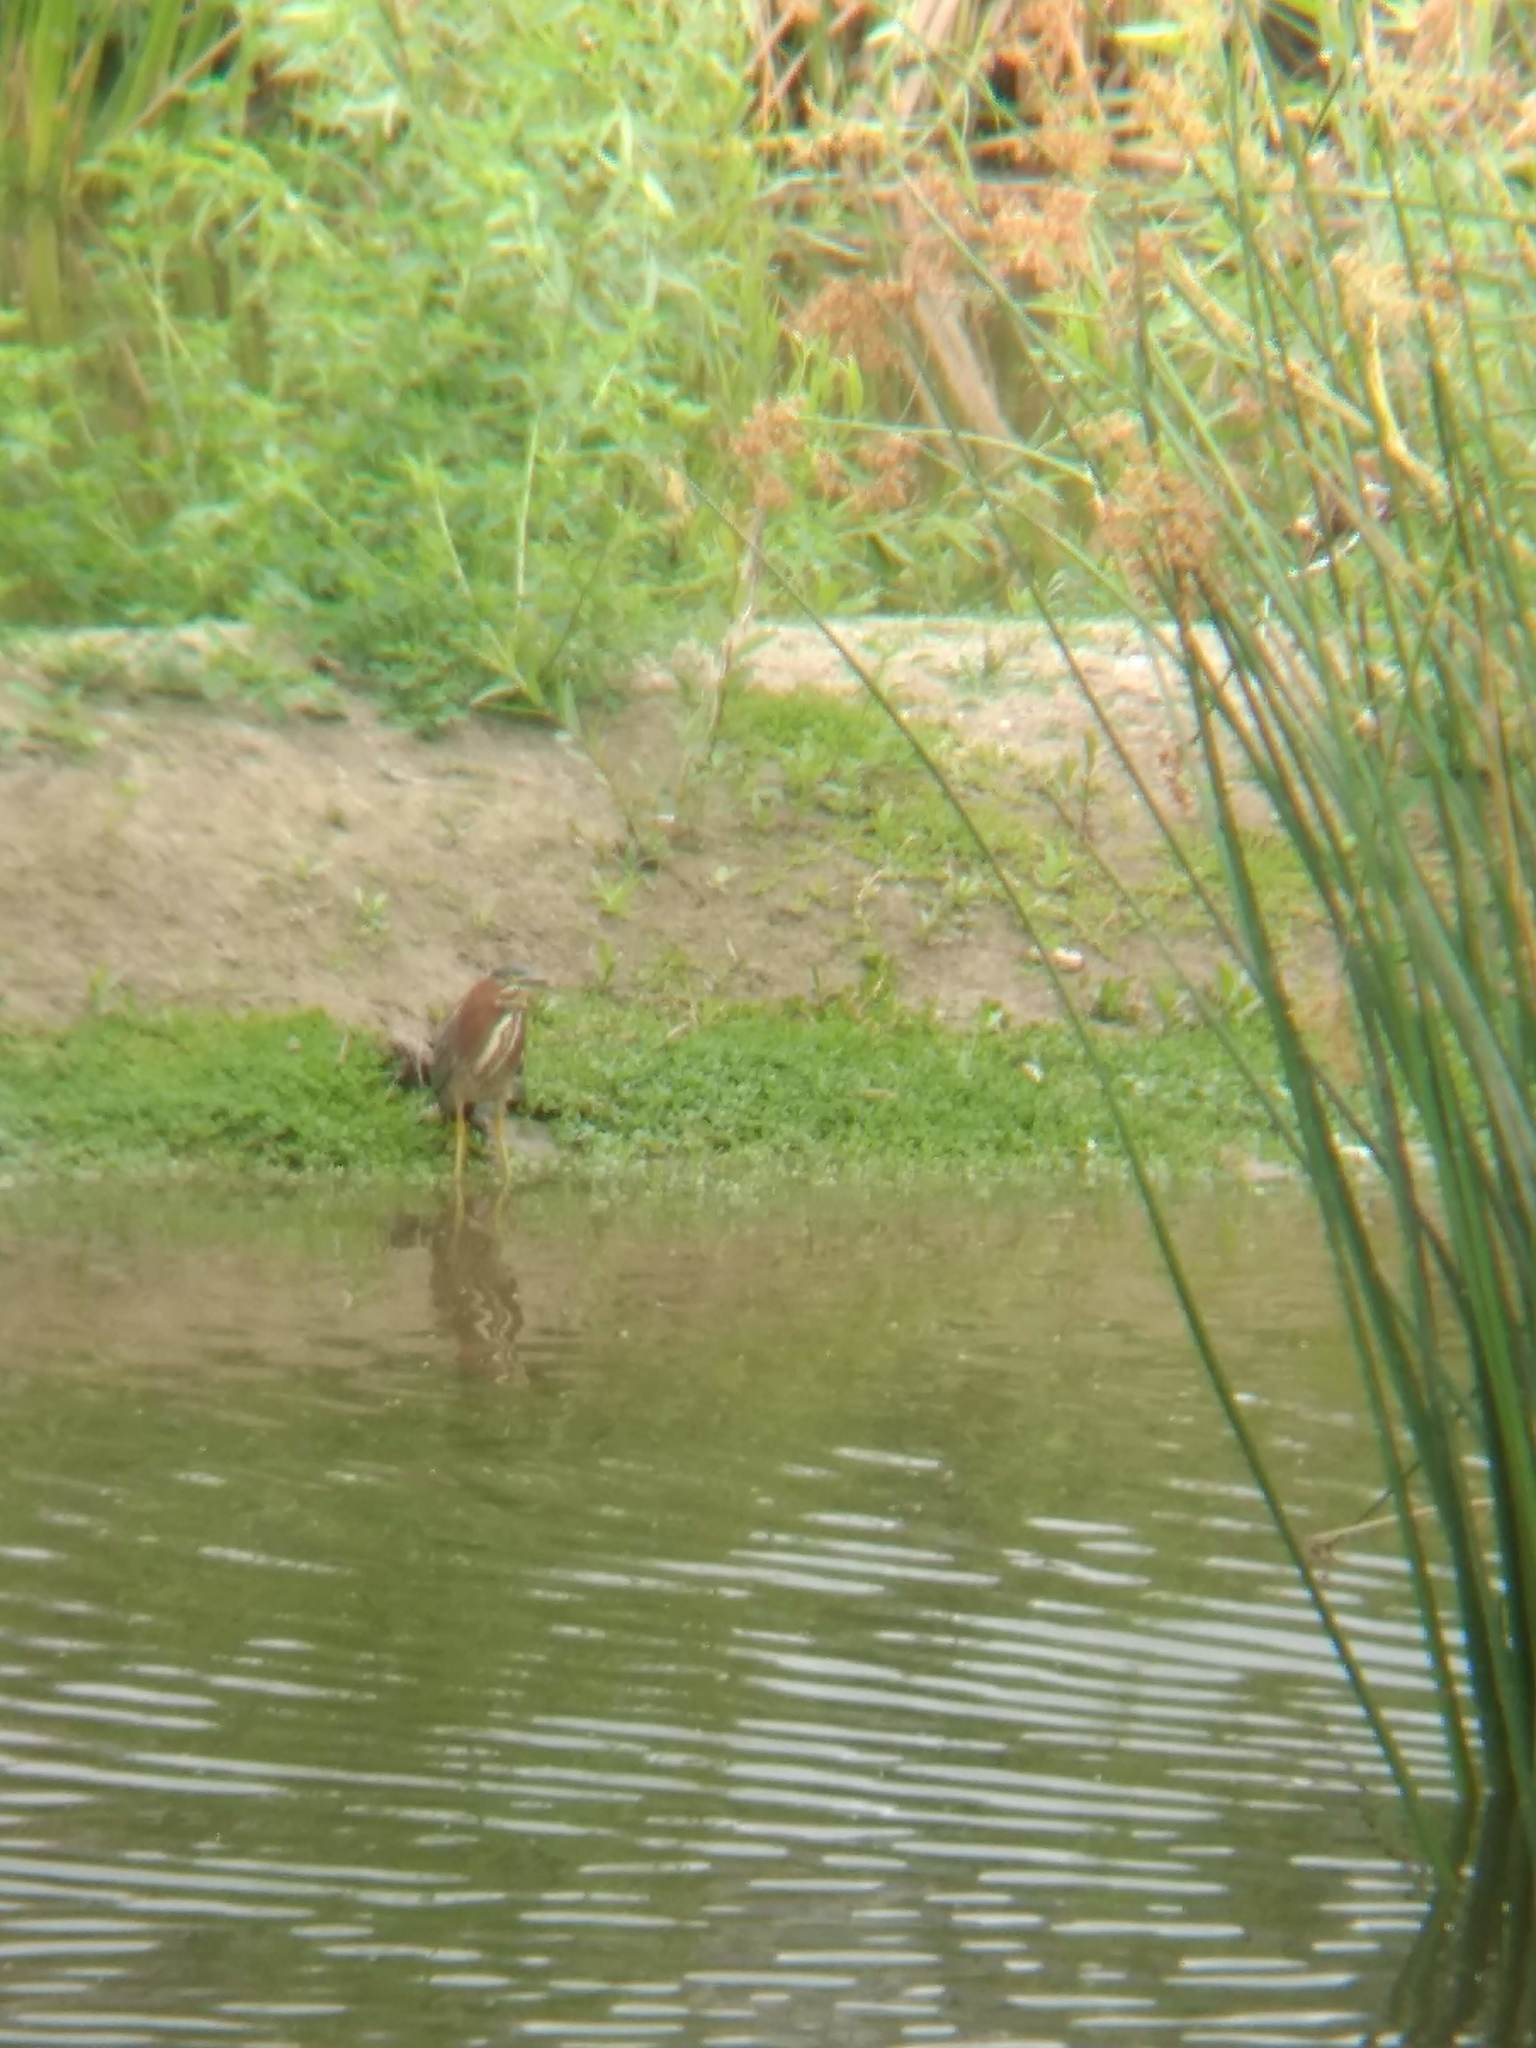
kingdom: Animalia
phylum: Chordata
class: Aves
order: Pelecaniformes
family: Ardeidae
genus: Butorides
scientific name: Butorides virescens
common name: Green heron
